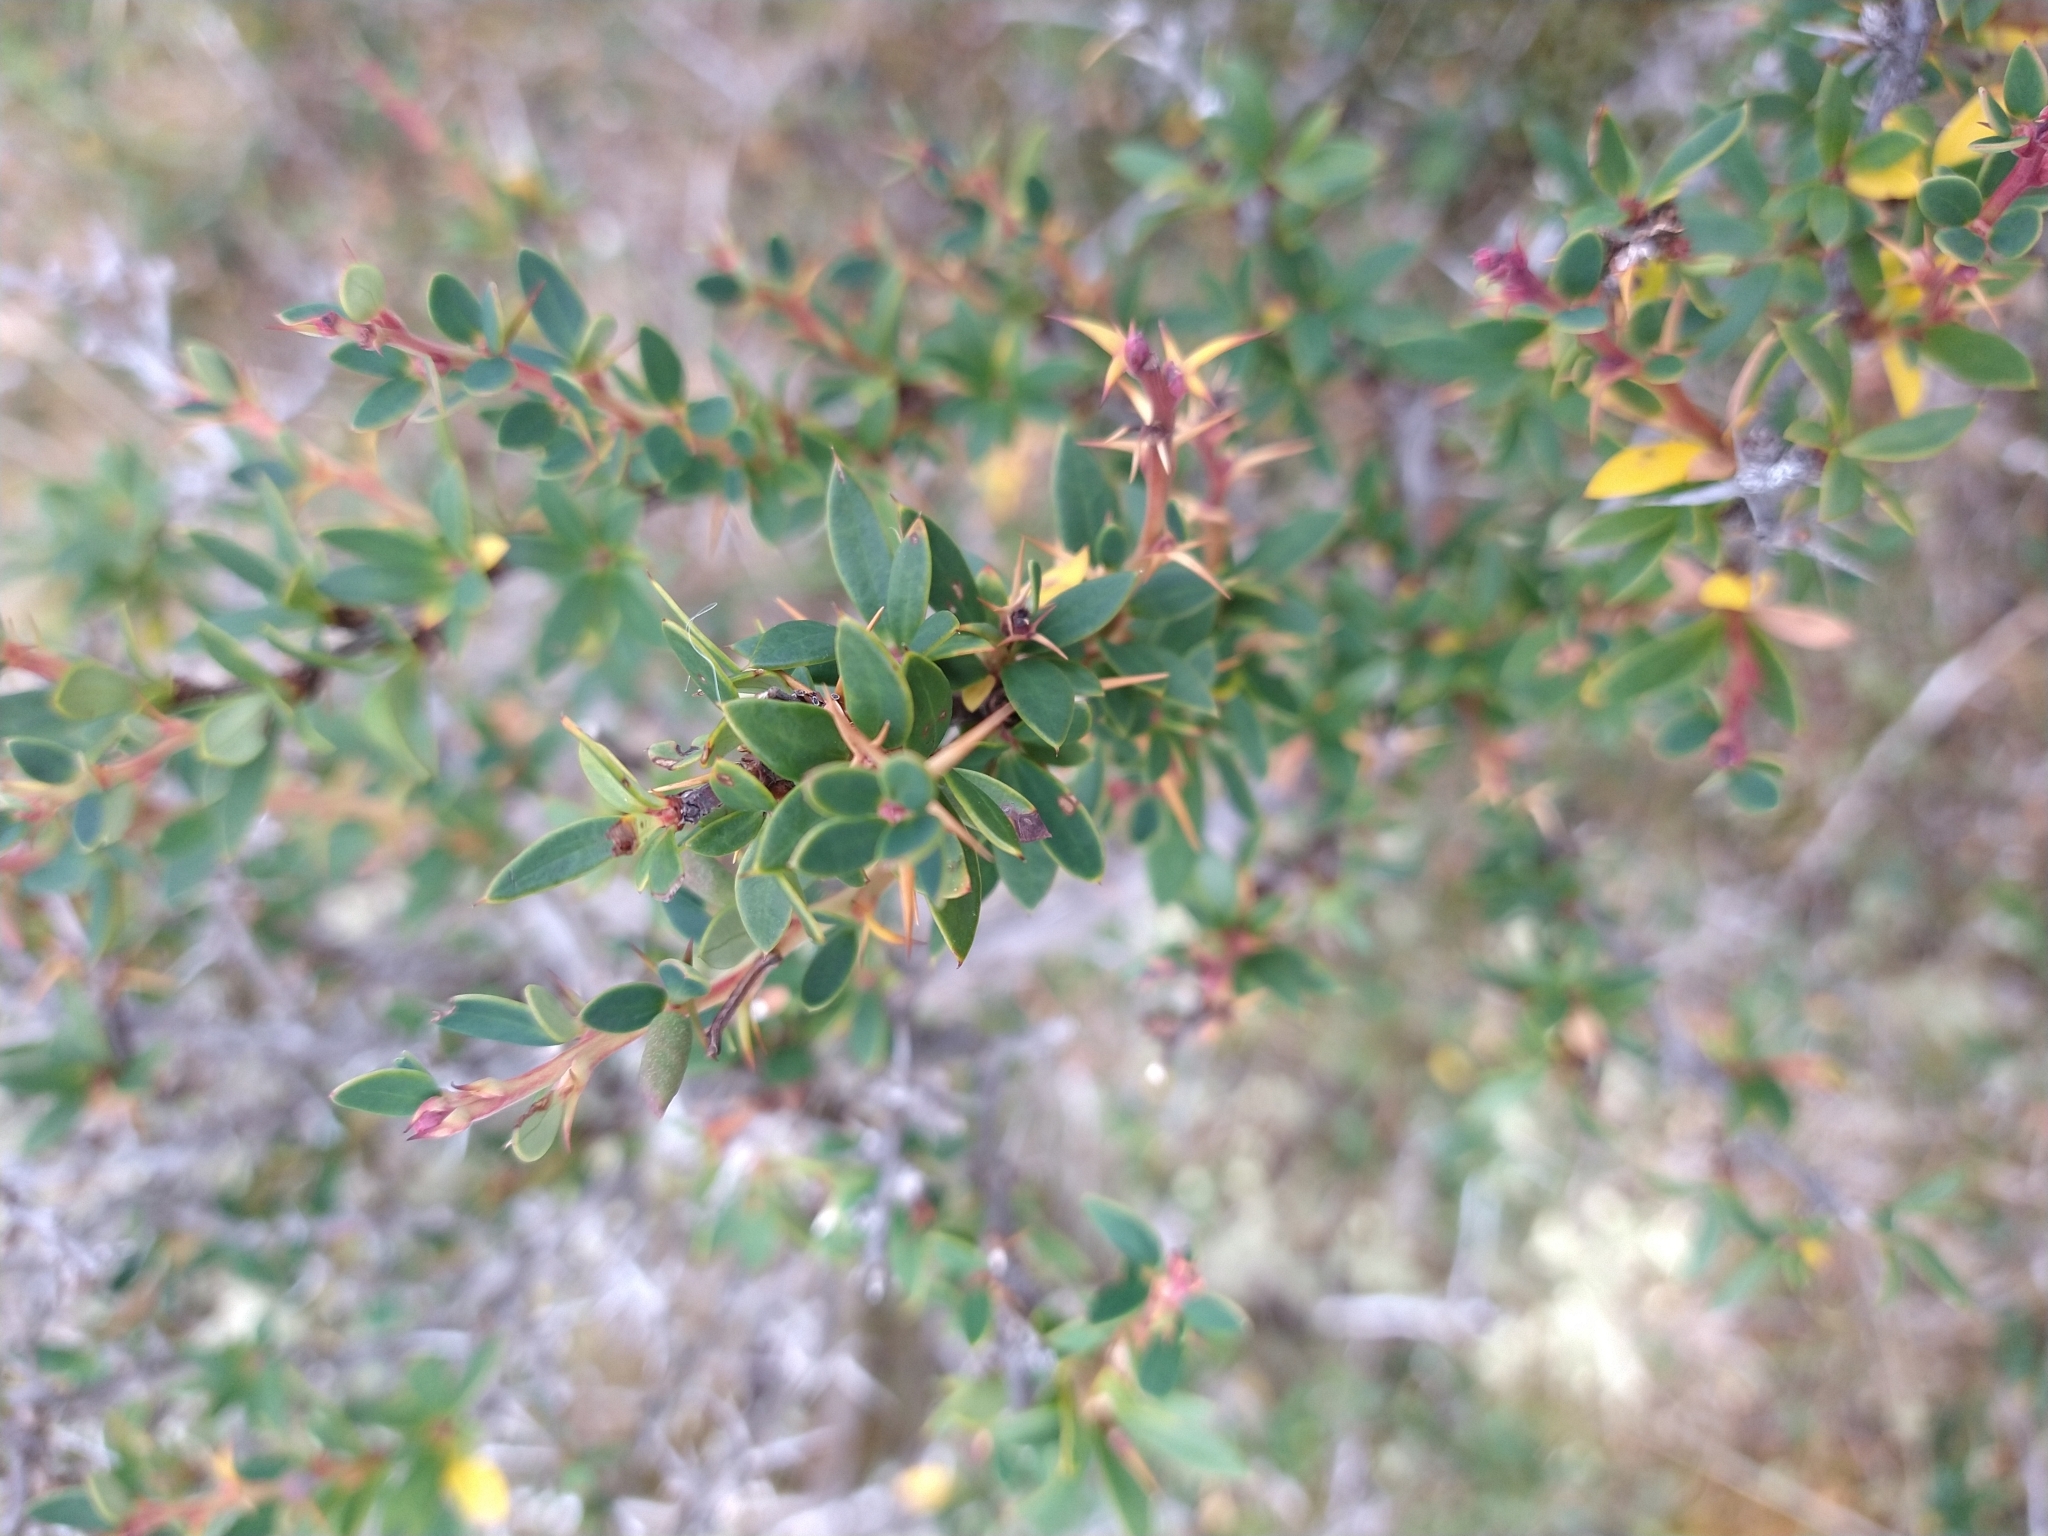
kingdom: Plantae
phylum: Tracheophyta
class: Magnoliopsida
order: Ranunculales
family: Berberidaceae
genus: Berberis
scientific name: Berberis microphylla
